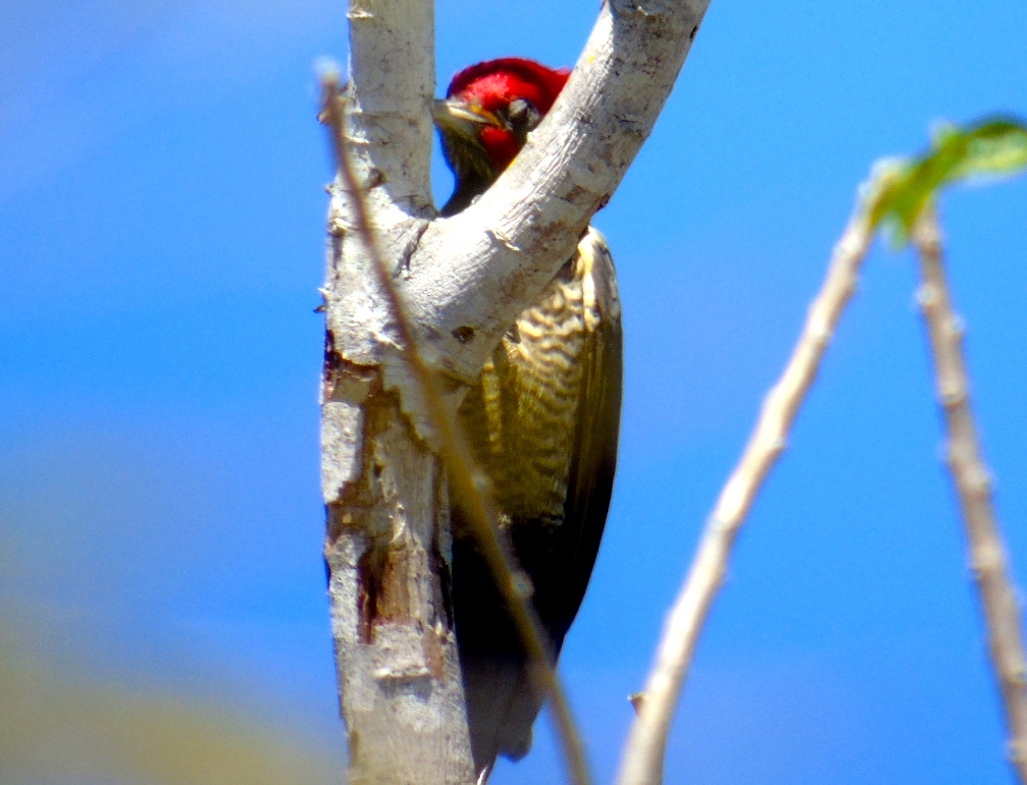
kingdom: Animalia
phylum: Chordata
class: Aves
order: Piciformes
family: Picidae
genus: Dryocopus
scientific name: Dryocopus lineatus
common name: Lineated woodpecker
